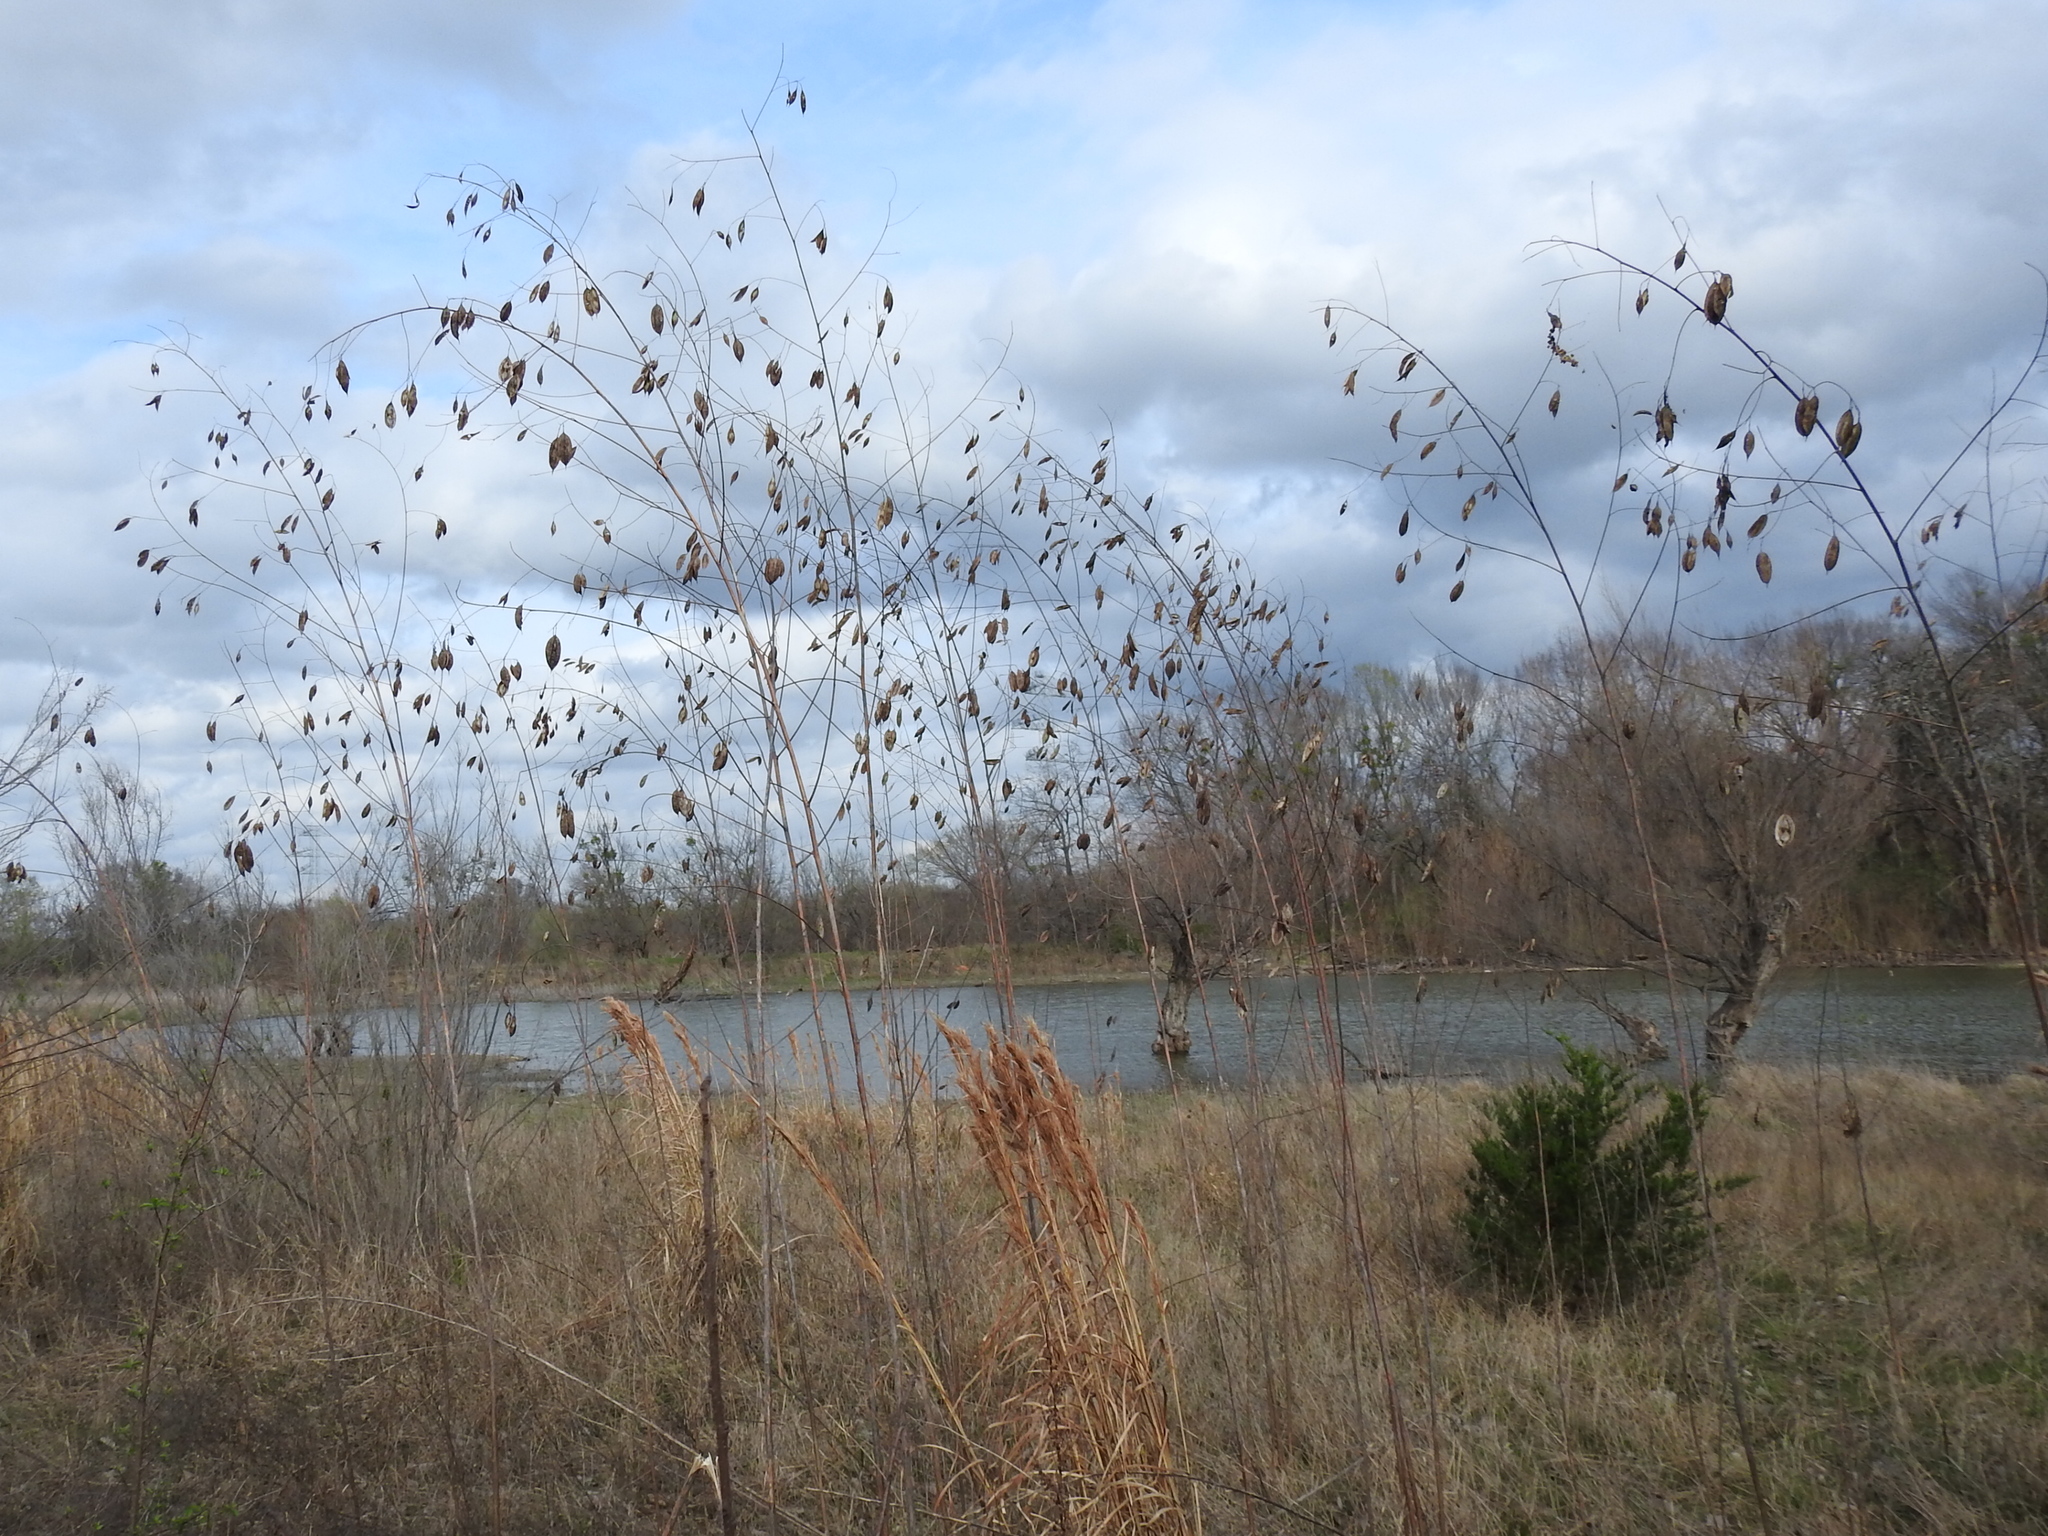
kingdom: Plantae
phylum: Tracheophyta
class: Magnoliopsida
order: Fabales
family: Fabaceae
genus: Sesbania
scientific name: Sesbania vesicaria
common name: Bagpod
